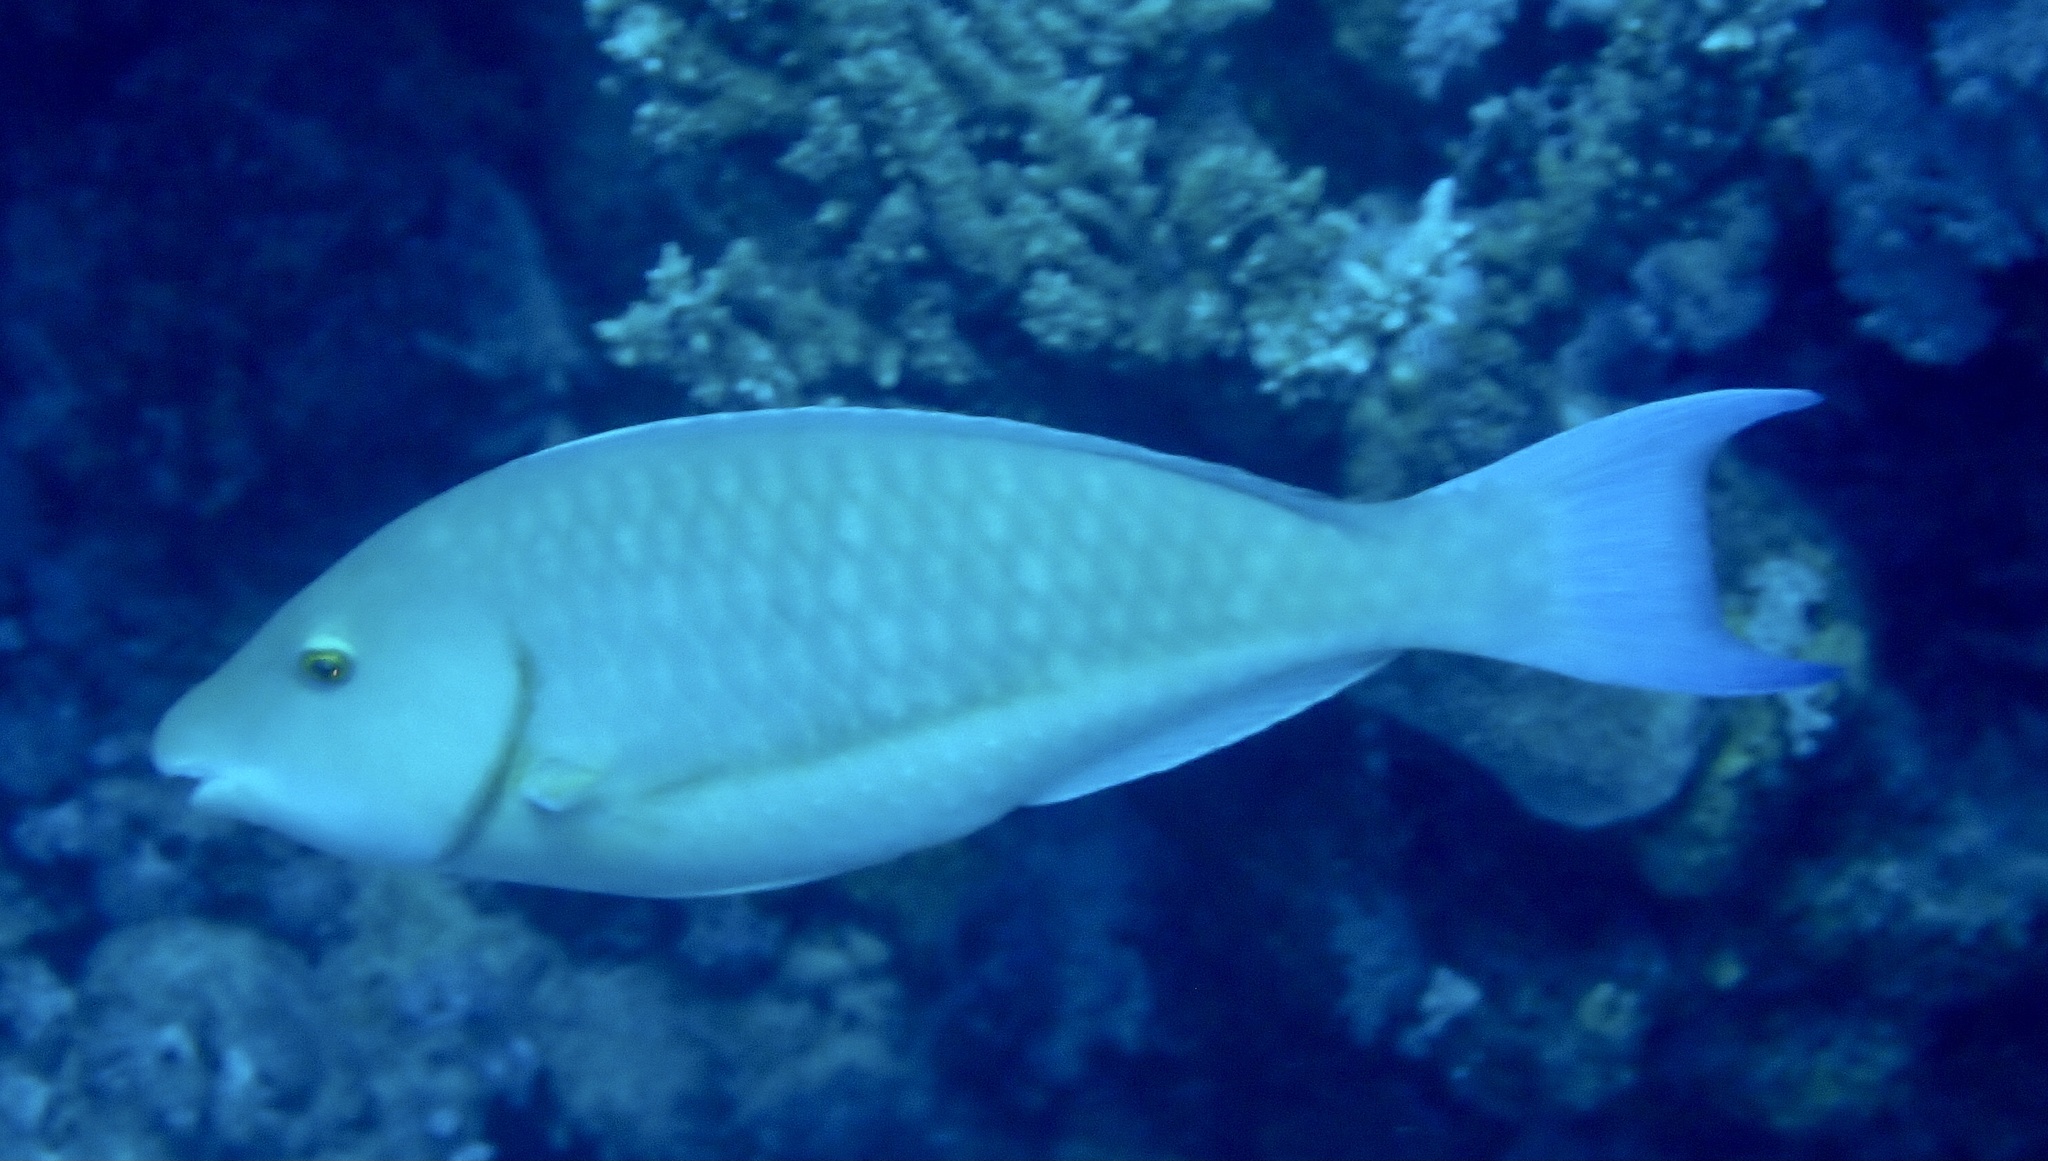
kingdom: Animalia
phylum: Chordata
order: Perciformes
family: Scaridae
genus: Hipposcarus
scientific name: Hipposcarus harid
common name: Candelamoa parrotfish
